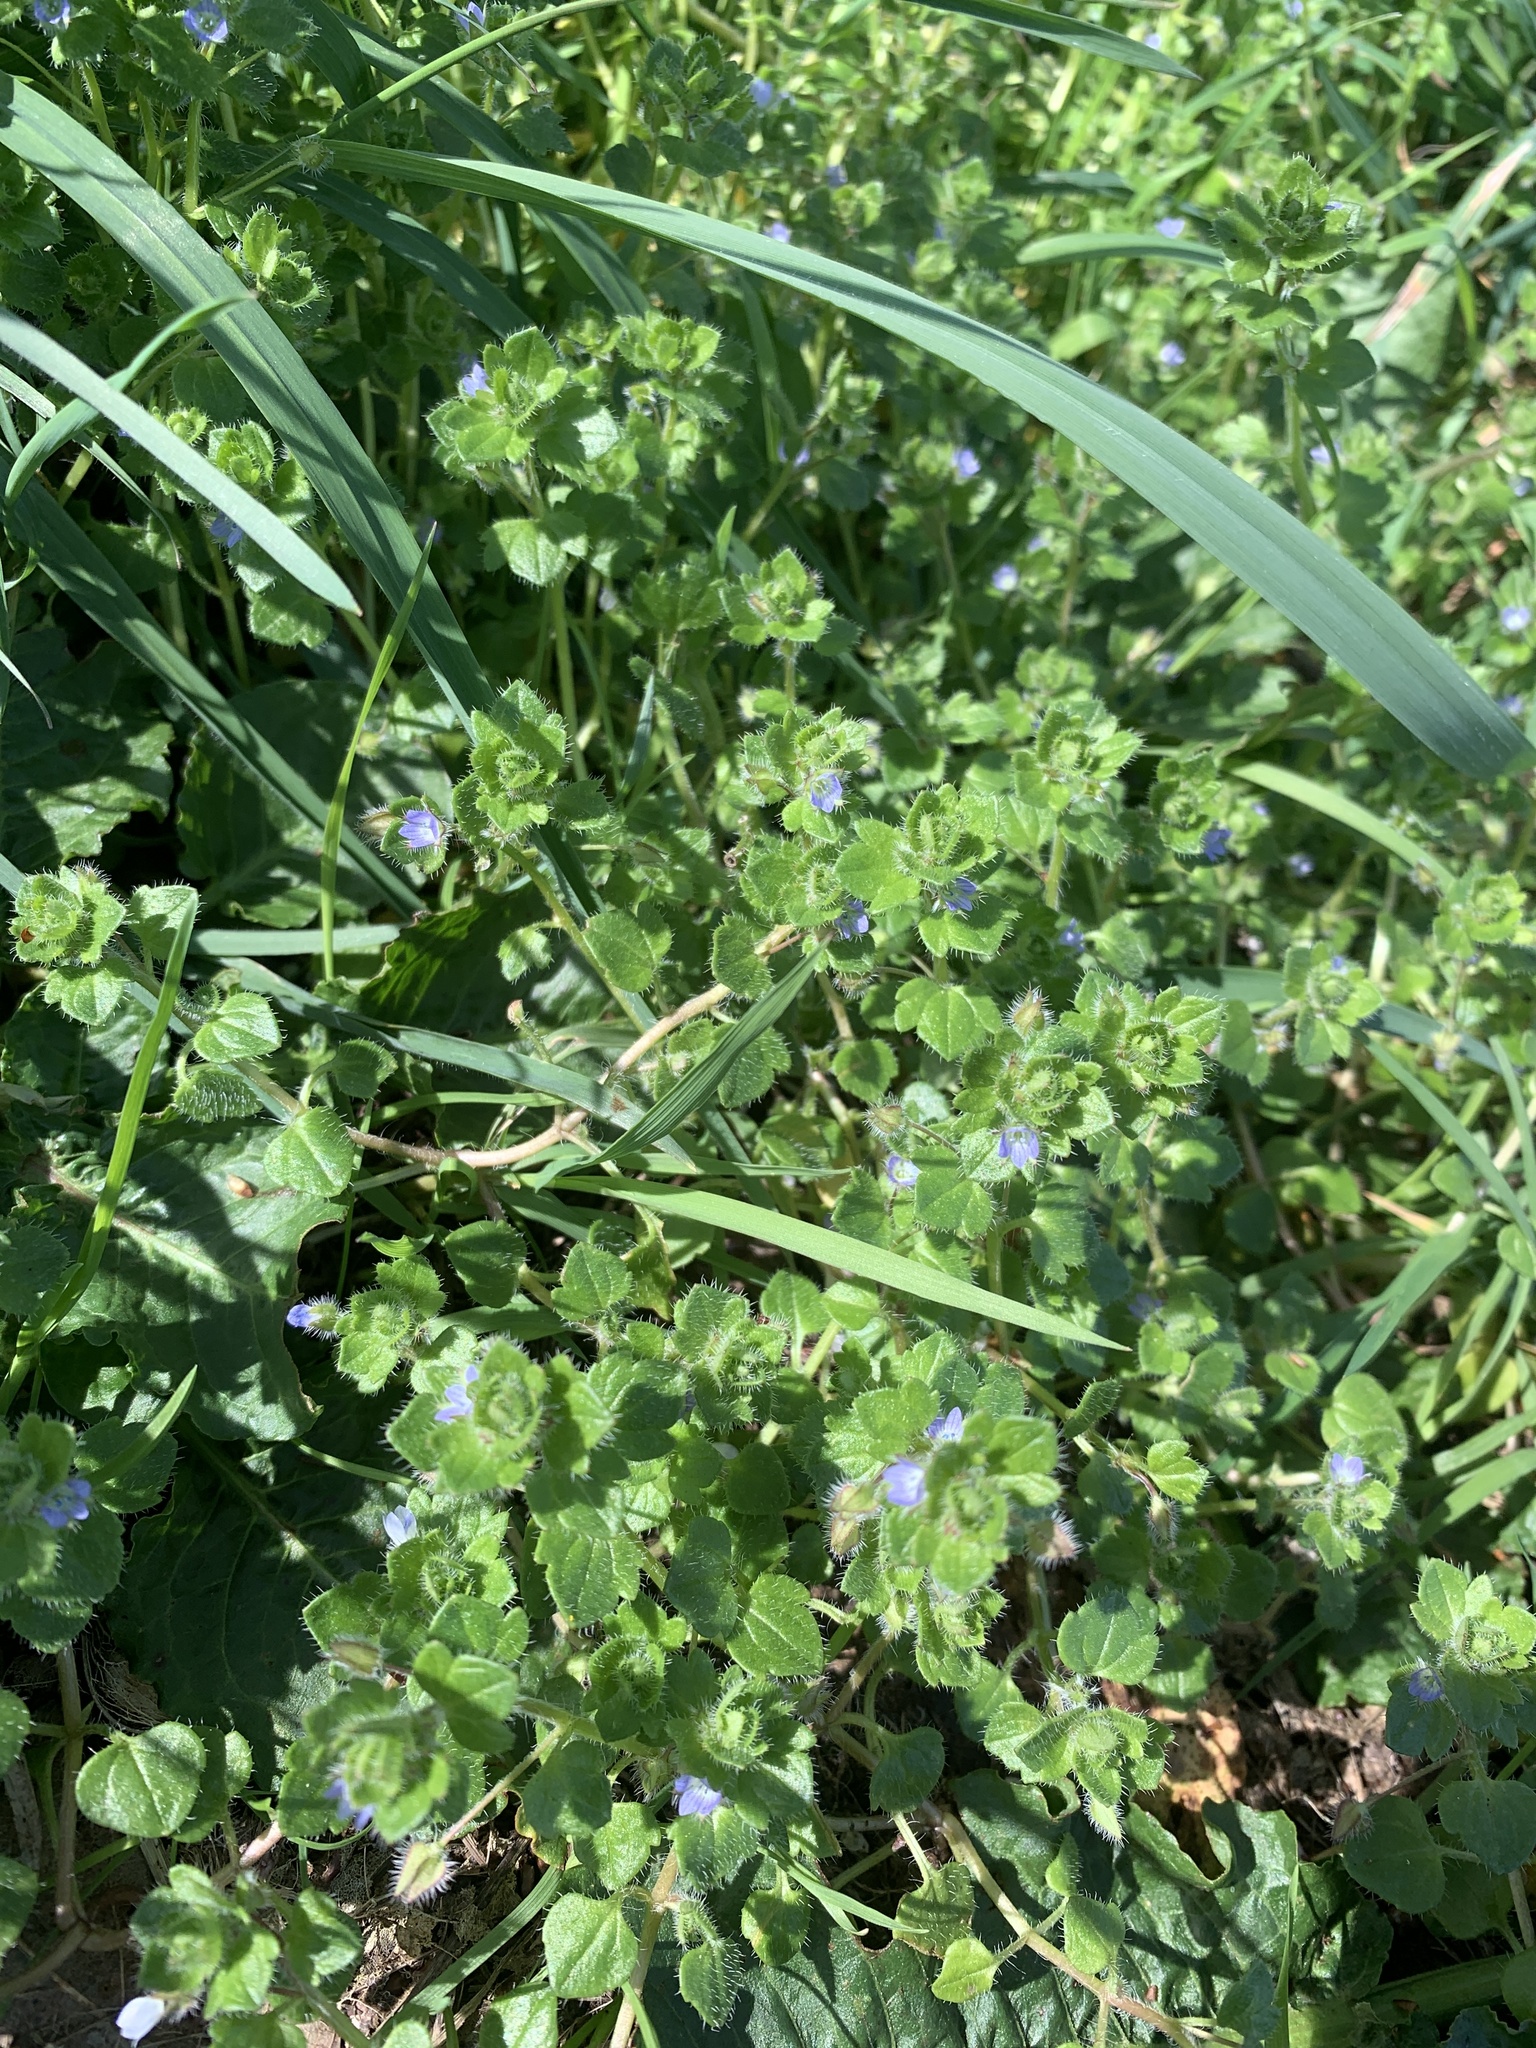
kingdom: Plantae
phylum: Tracheophyta
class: Magnoliopsida
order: Lamiales
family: Plantaginaceae
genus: Veronica
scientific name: Veronica hederifolia
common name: Ivy-leaved speedwell
